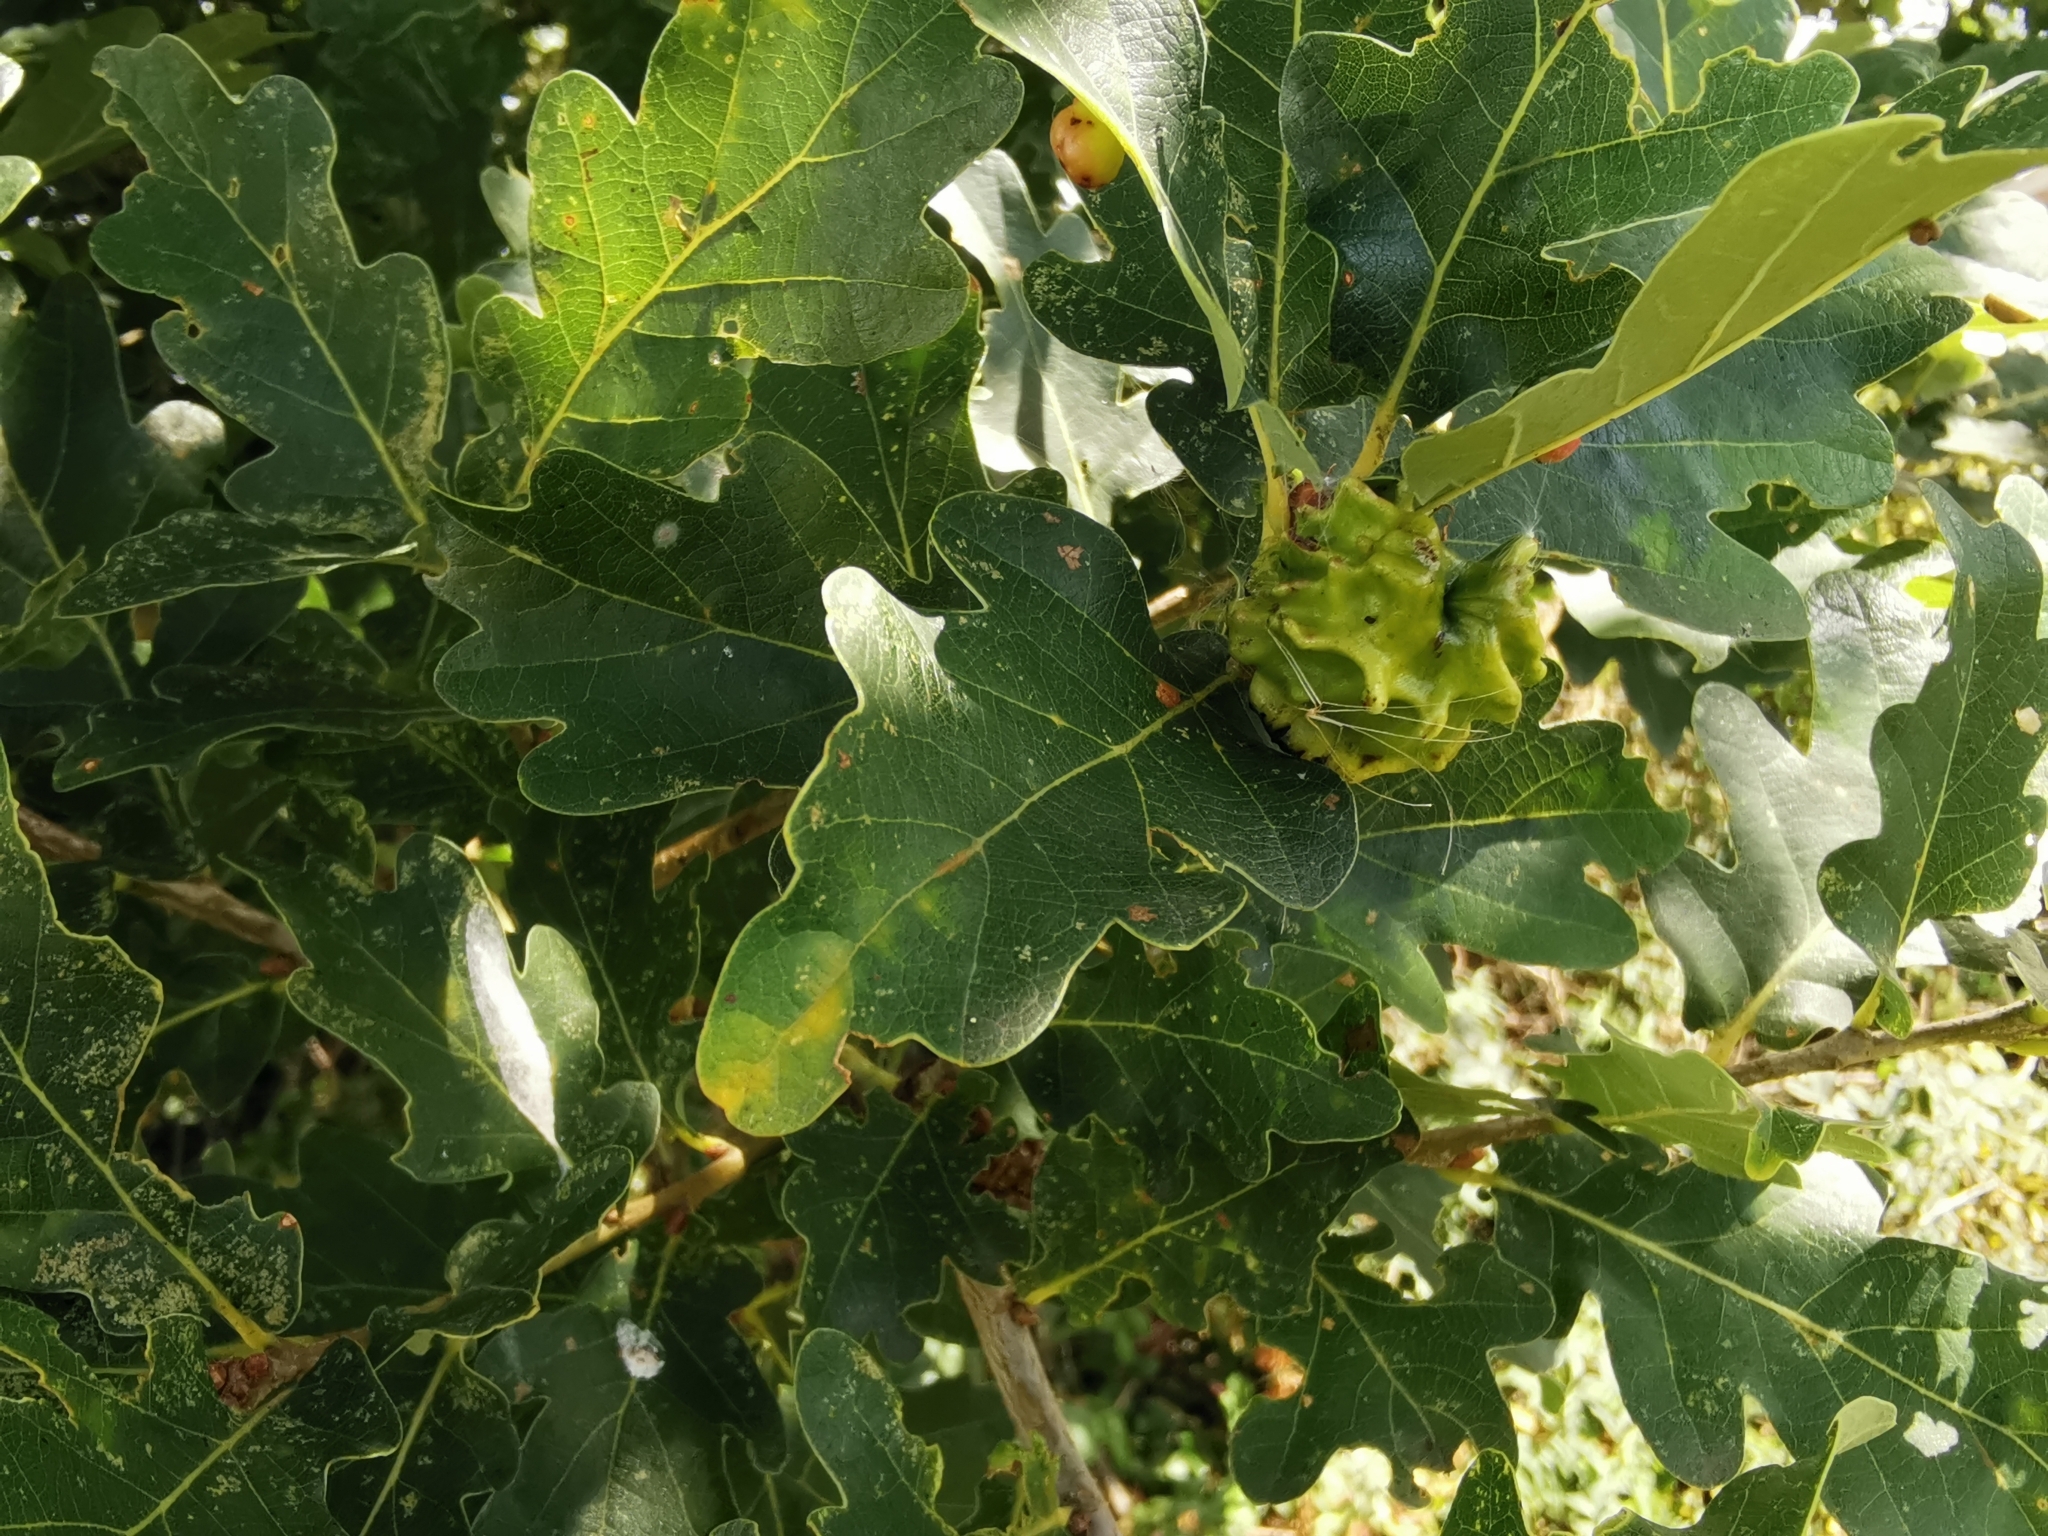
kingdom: Animalia
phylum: Arthropoda
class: Insecta
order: Hymenoptera
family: Cynipidae
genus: Andricus
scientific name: Andricus quercuscalicis
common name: Knopper gall
